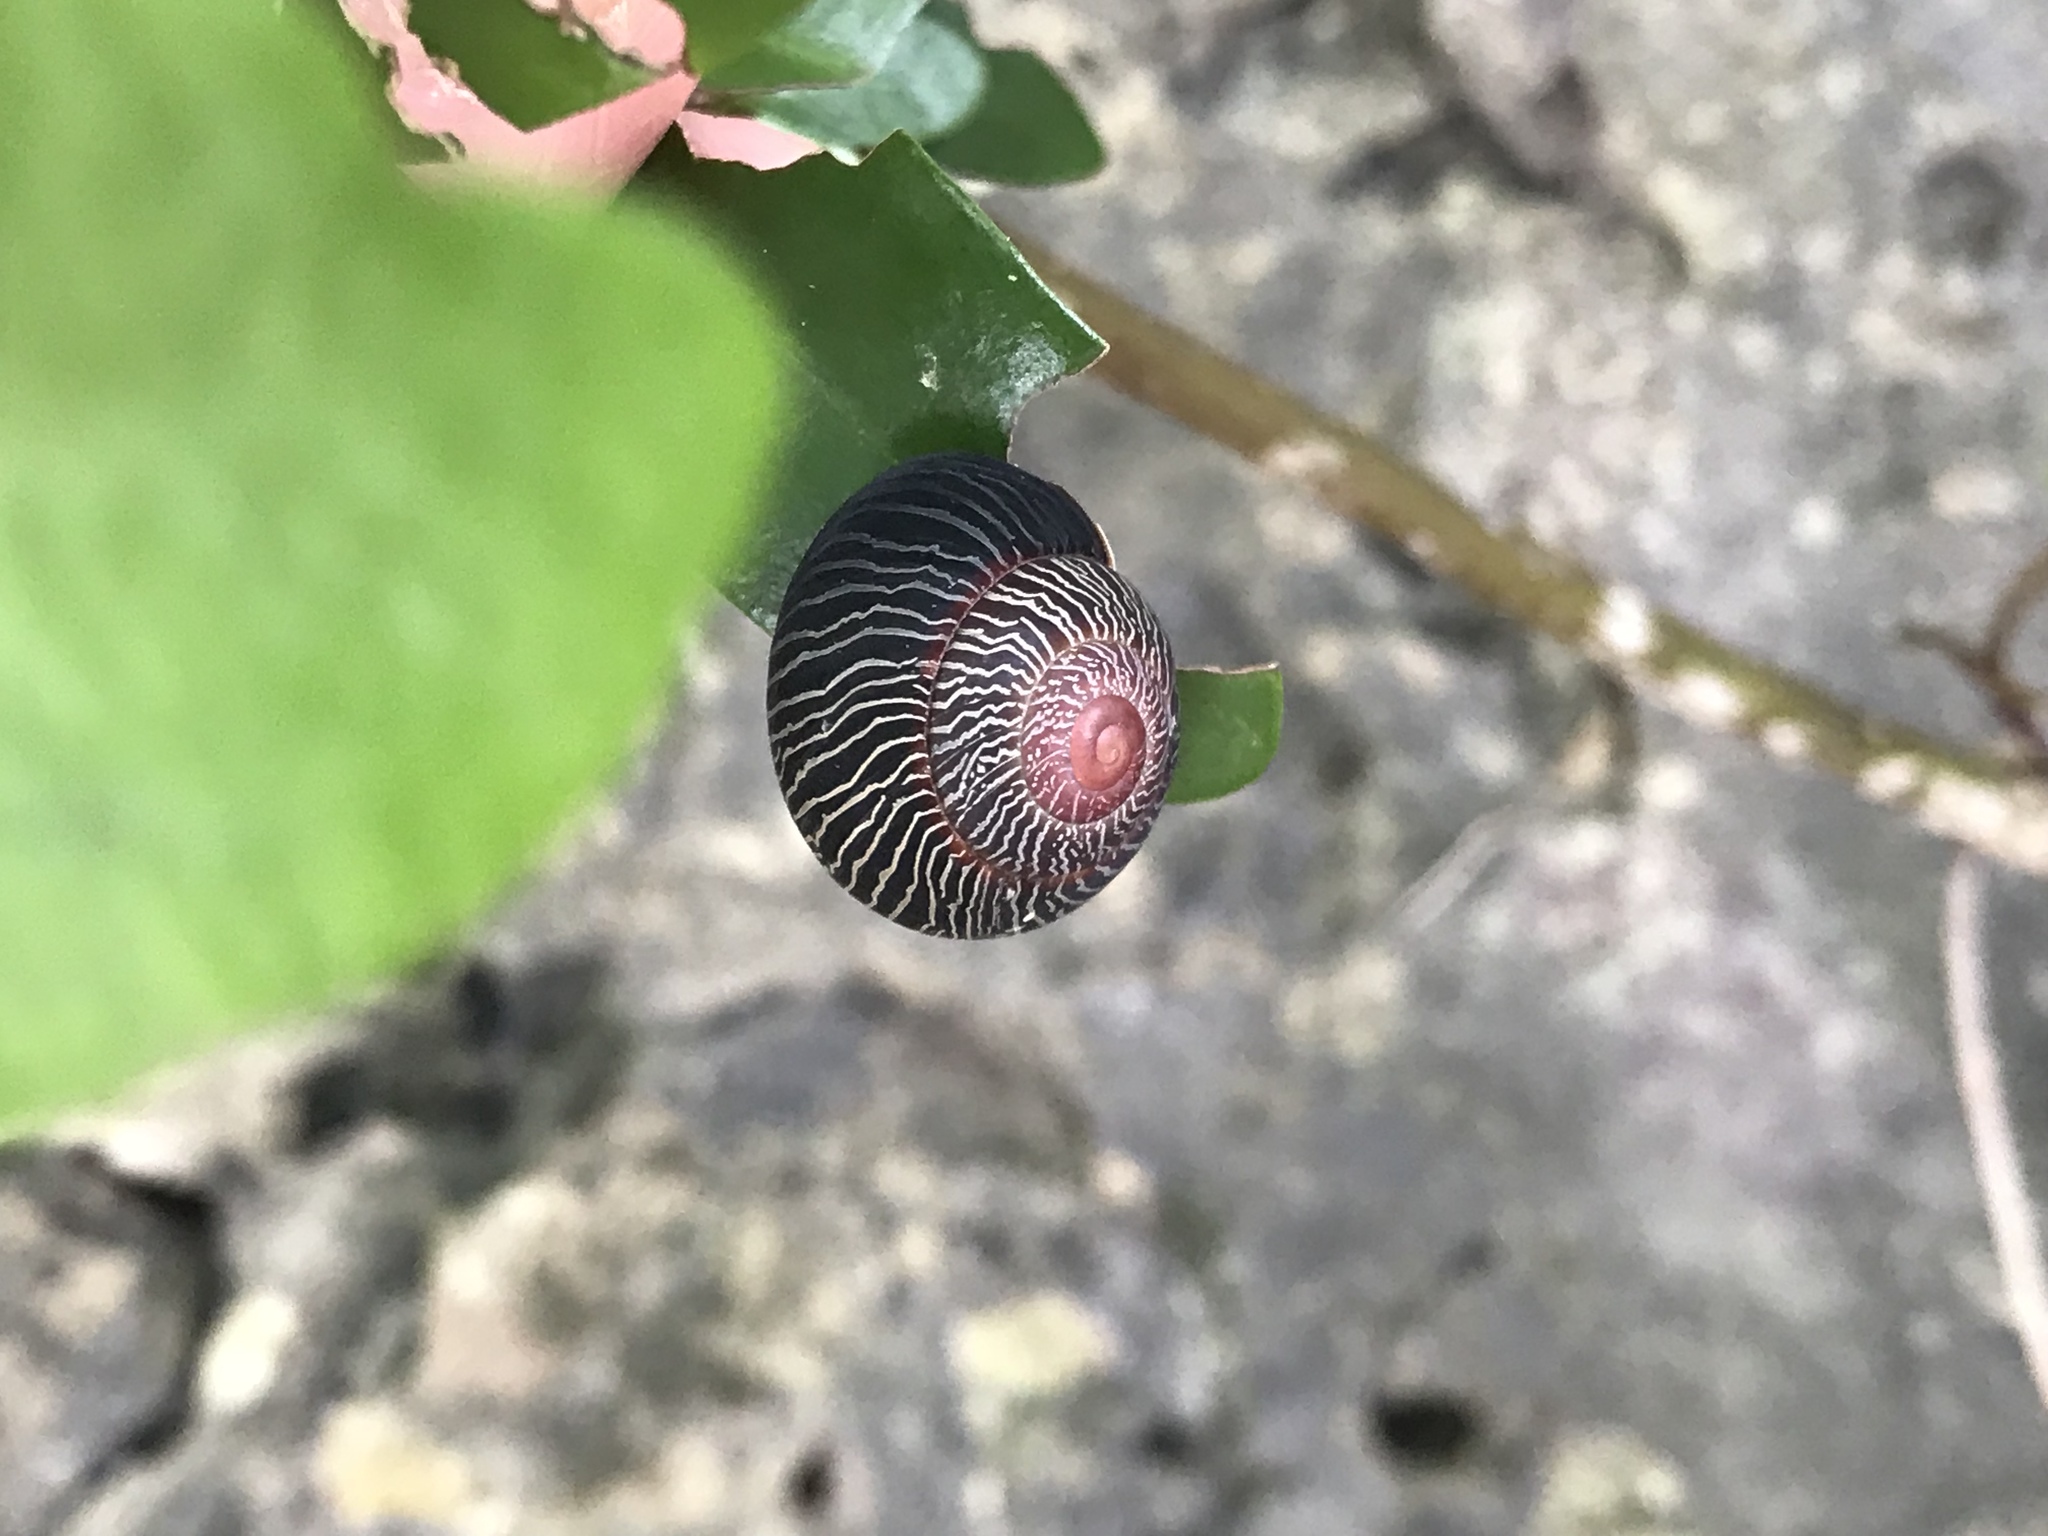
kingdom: Animalia
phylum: Mollusca
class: Gastropoda
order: Stylommatophora
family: Cepolidae
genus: Coryda
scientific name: Coryda alauda
